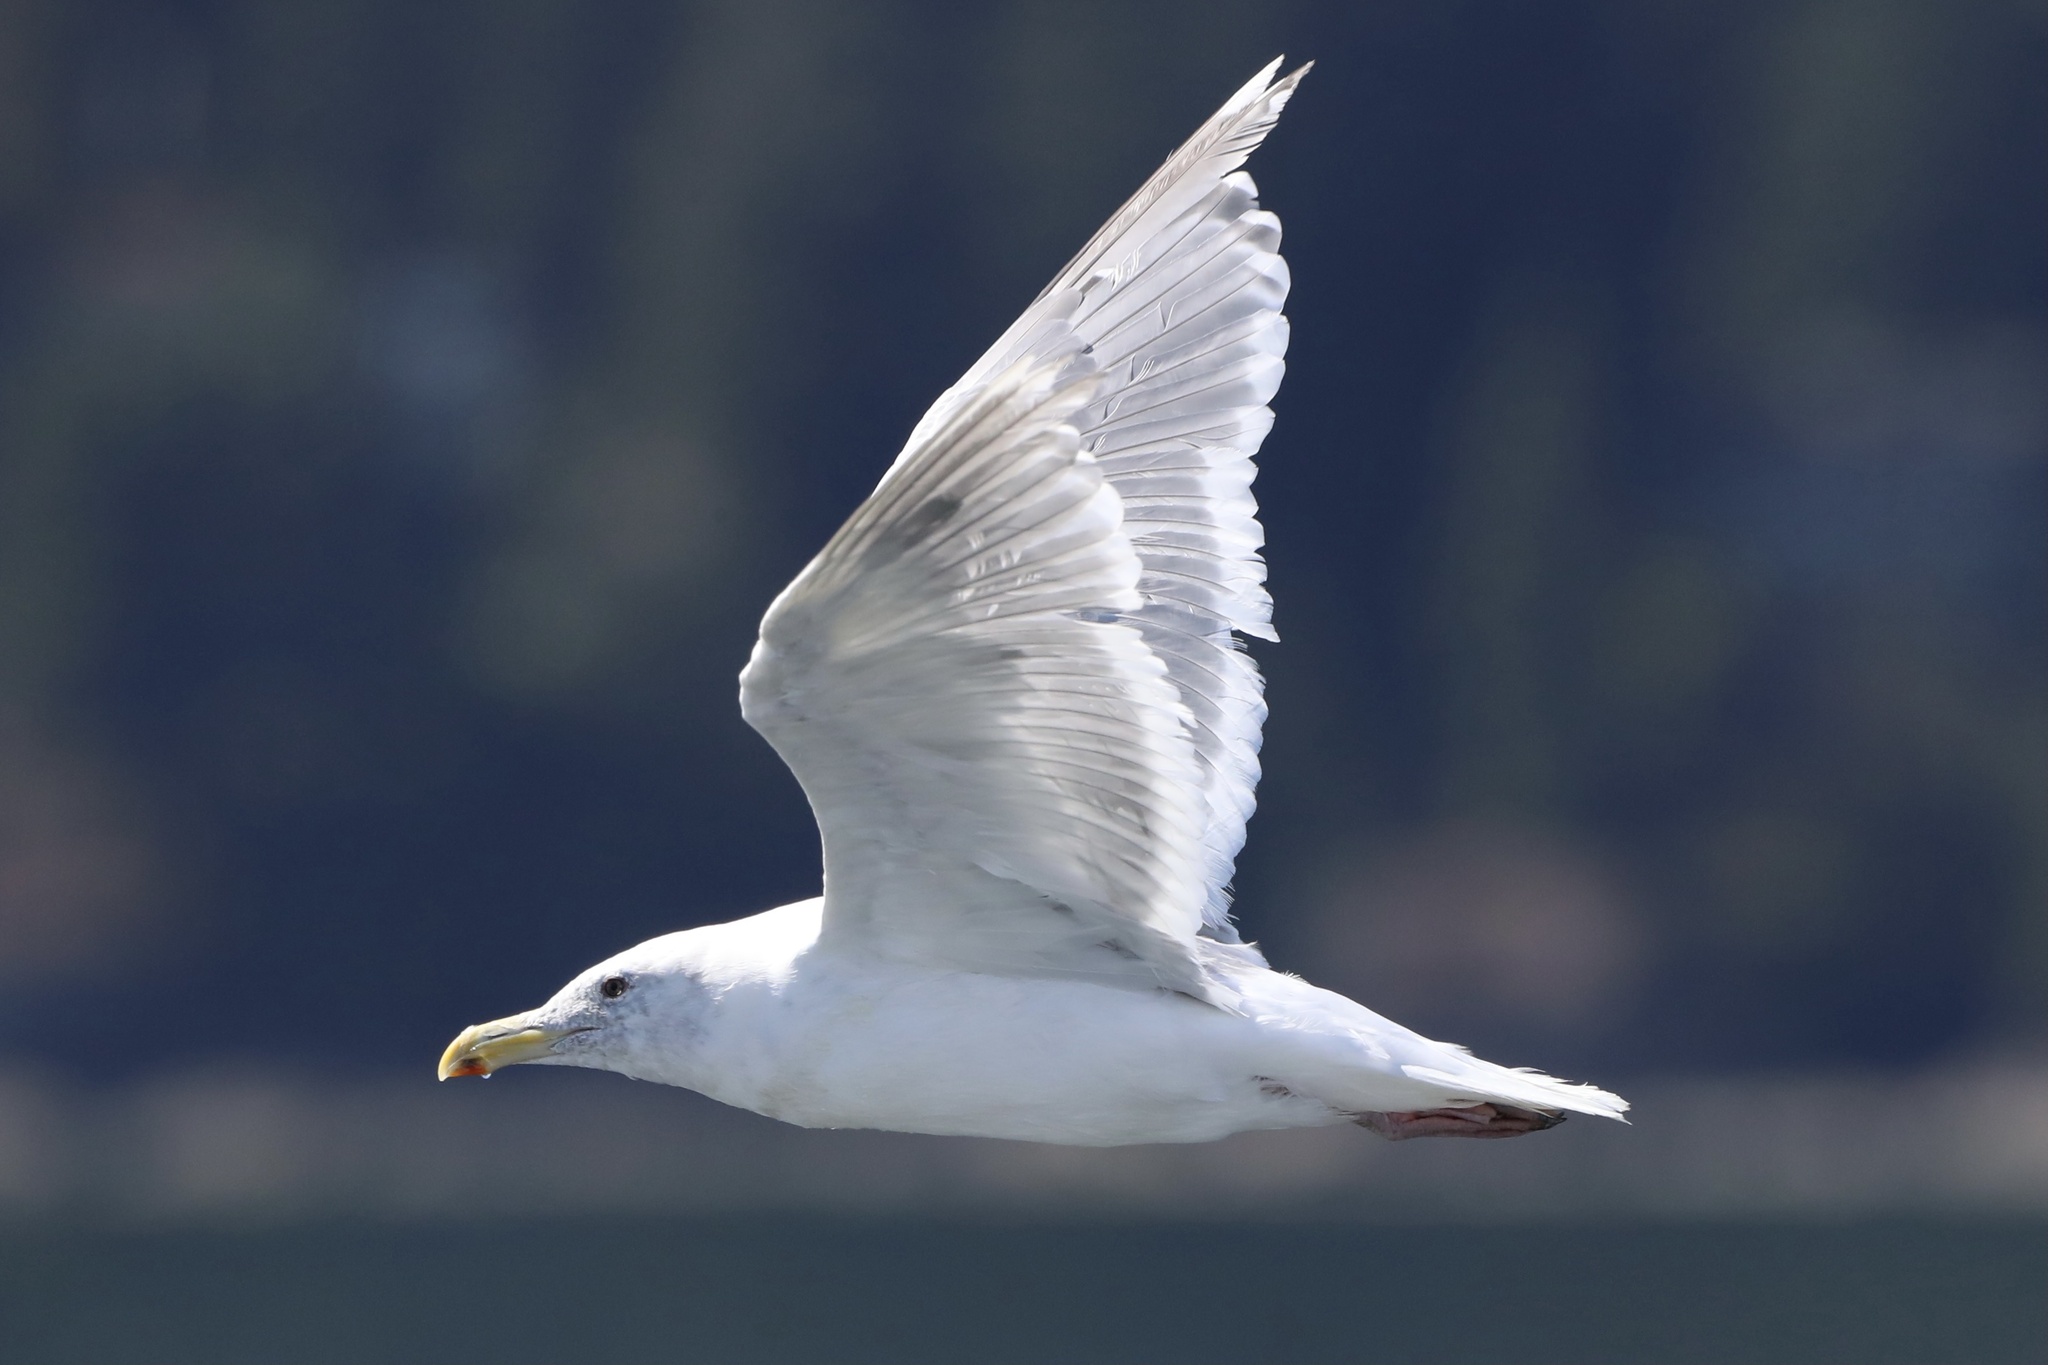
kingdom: Animalia
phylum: Chordata
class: Aves
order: Charadriiformes
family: Laridae
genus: Larus
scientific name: Larus glaucescens
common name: Glaucous-winged gull
